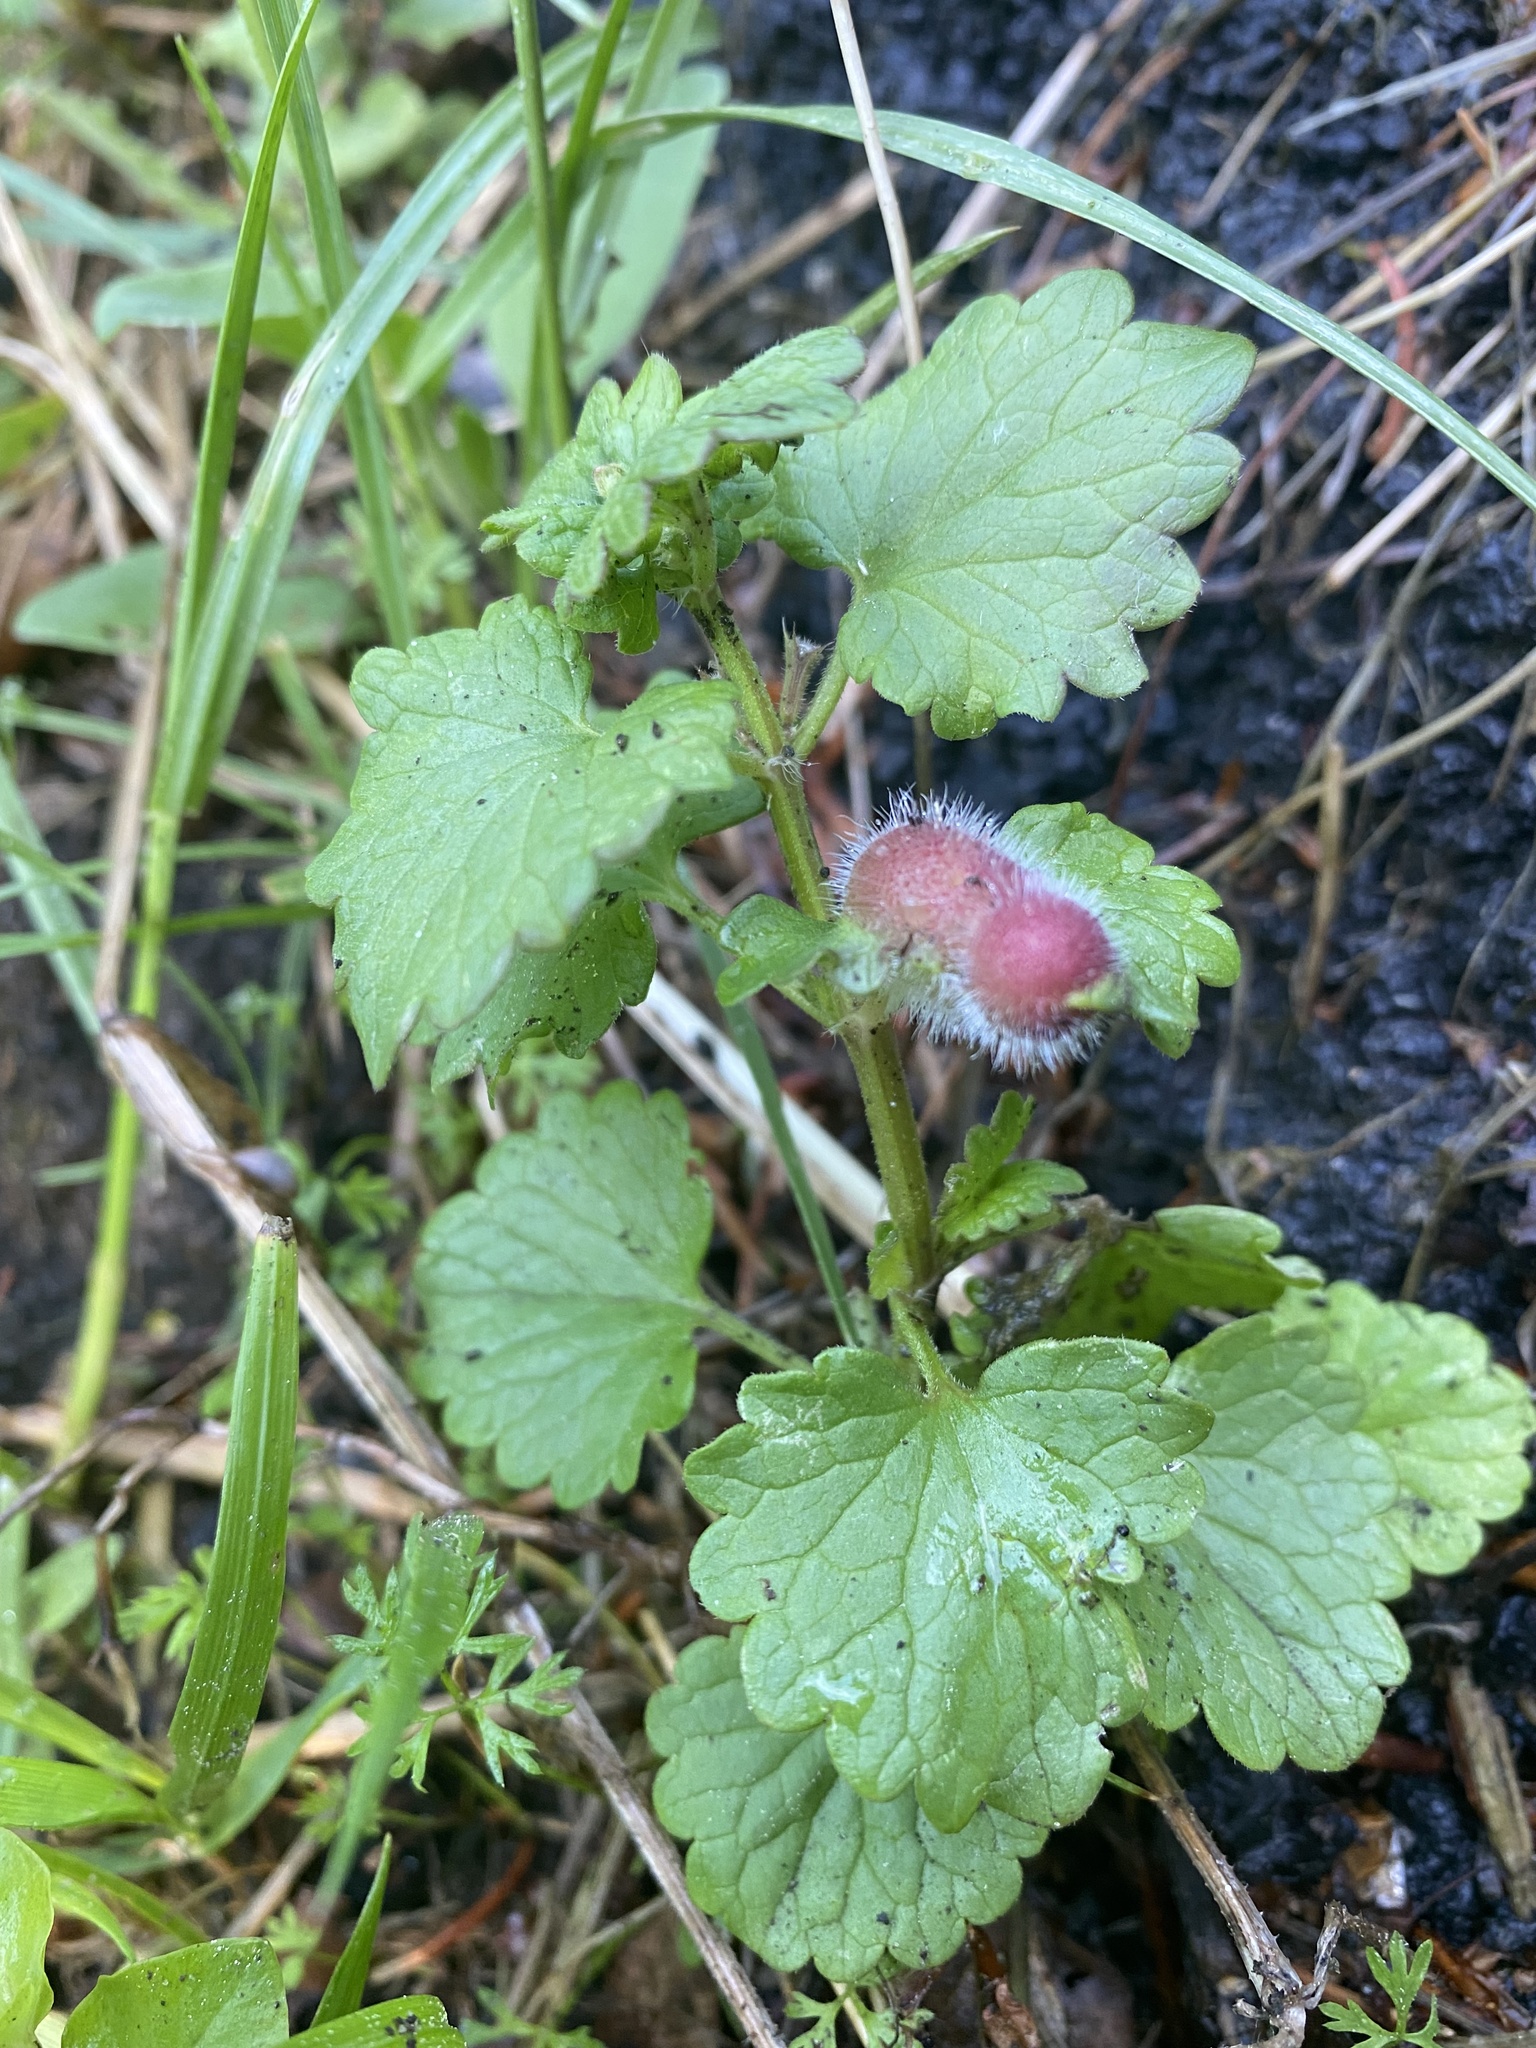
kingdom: Animalia
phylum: Arthropoda
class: Insecta
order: Hymenoptera
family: Cynipidae
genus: Liposthenes
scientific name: Liposthenes glechomae
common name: Gall wasp
